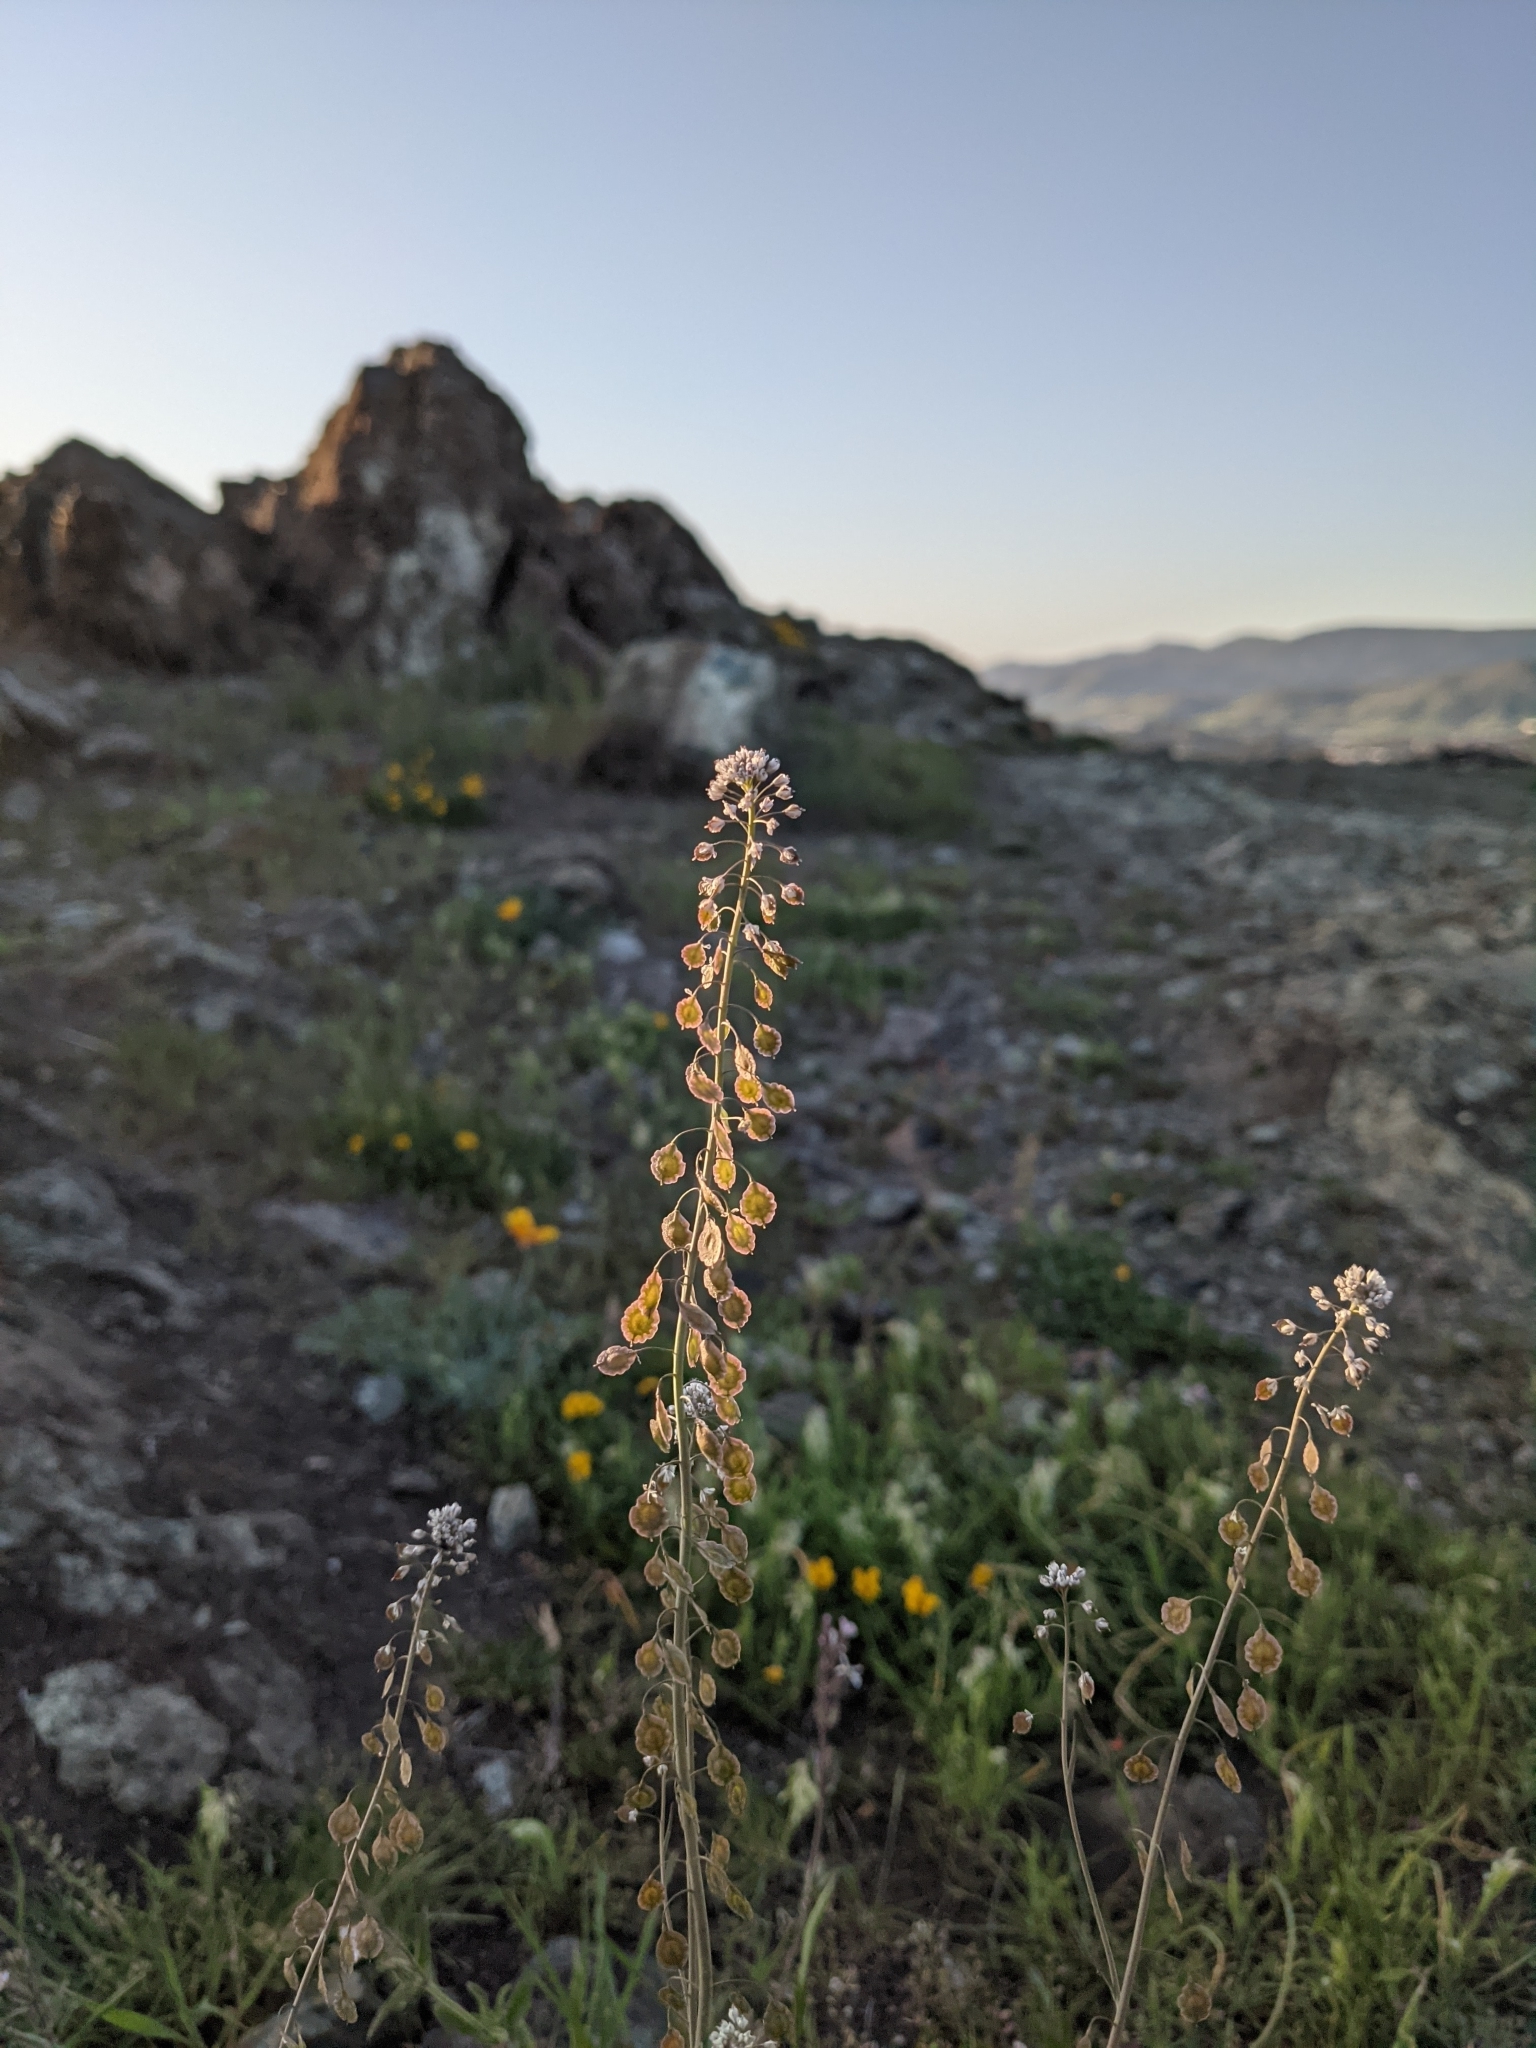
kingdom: Plantae
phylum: Tracheophyta
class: Magnoliopsida
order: Brassicales
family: Brassicaceae
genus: Thysanocarpus
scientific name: Thysanocarpus curvipes
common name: Sand fringepod
